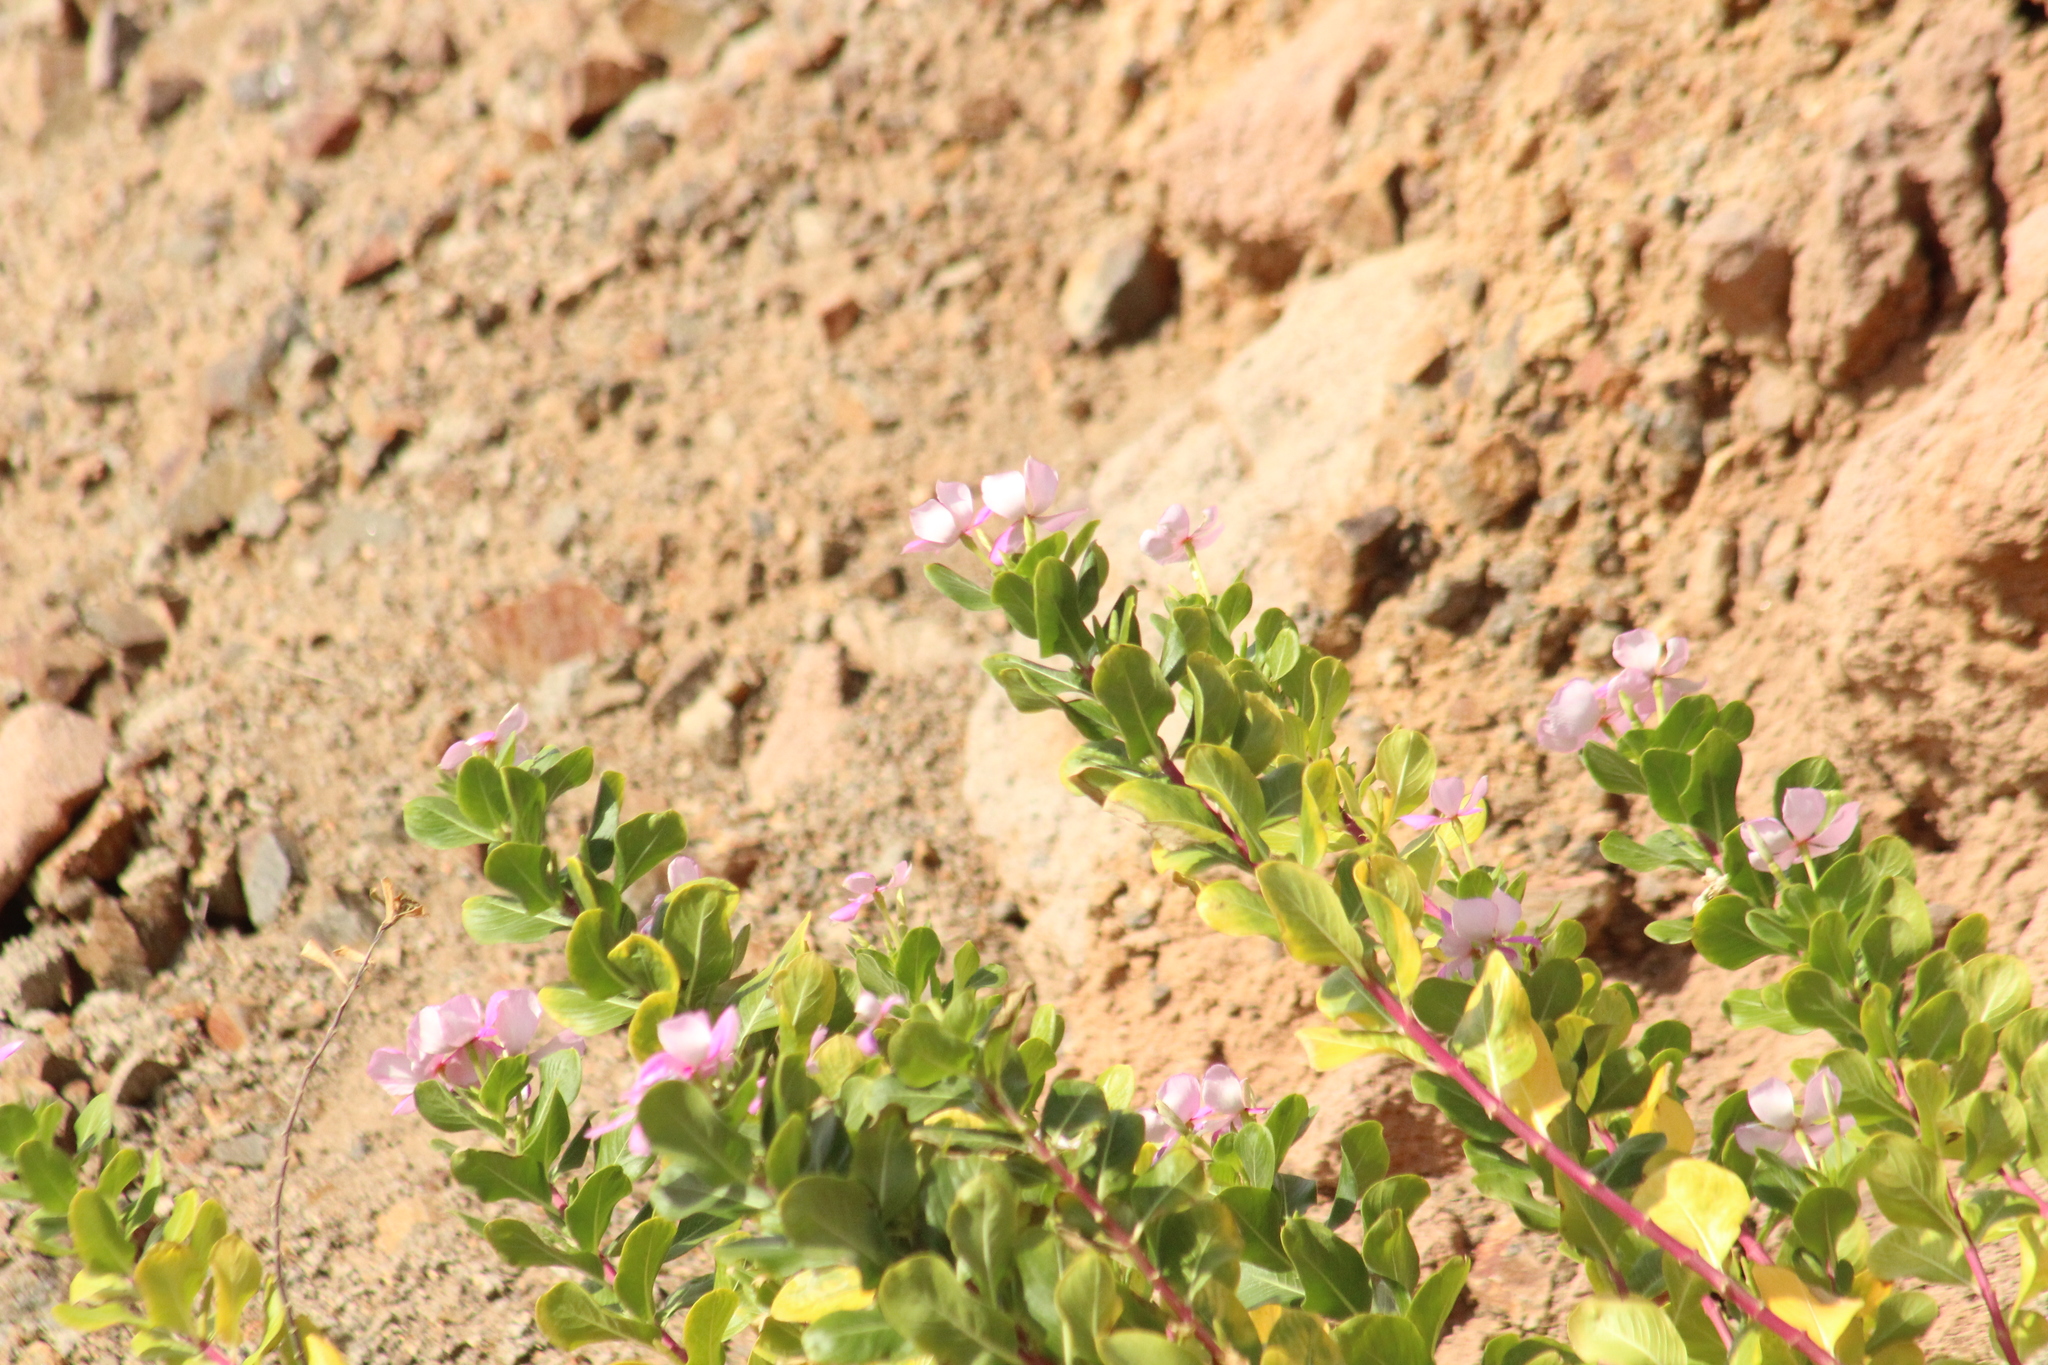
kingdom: Plantae
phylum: Tracheophyta
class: Magnoliopsida
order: Gentianales
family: Apocynaceae
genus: Catharanthus
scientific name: Catharanthus roseus
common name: Madagascar periwinkle
